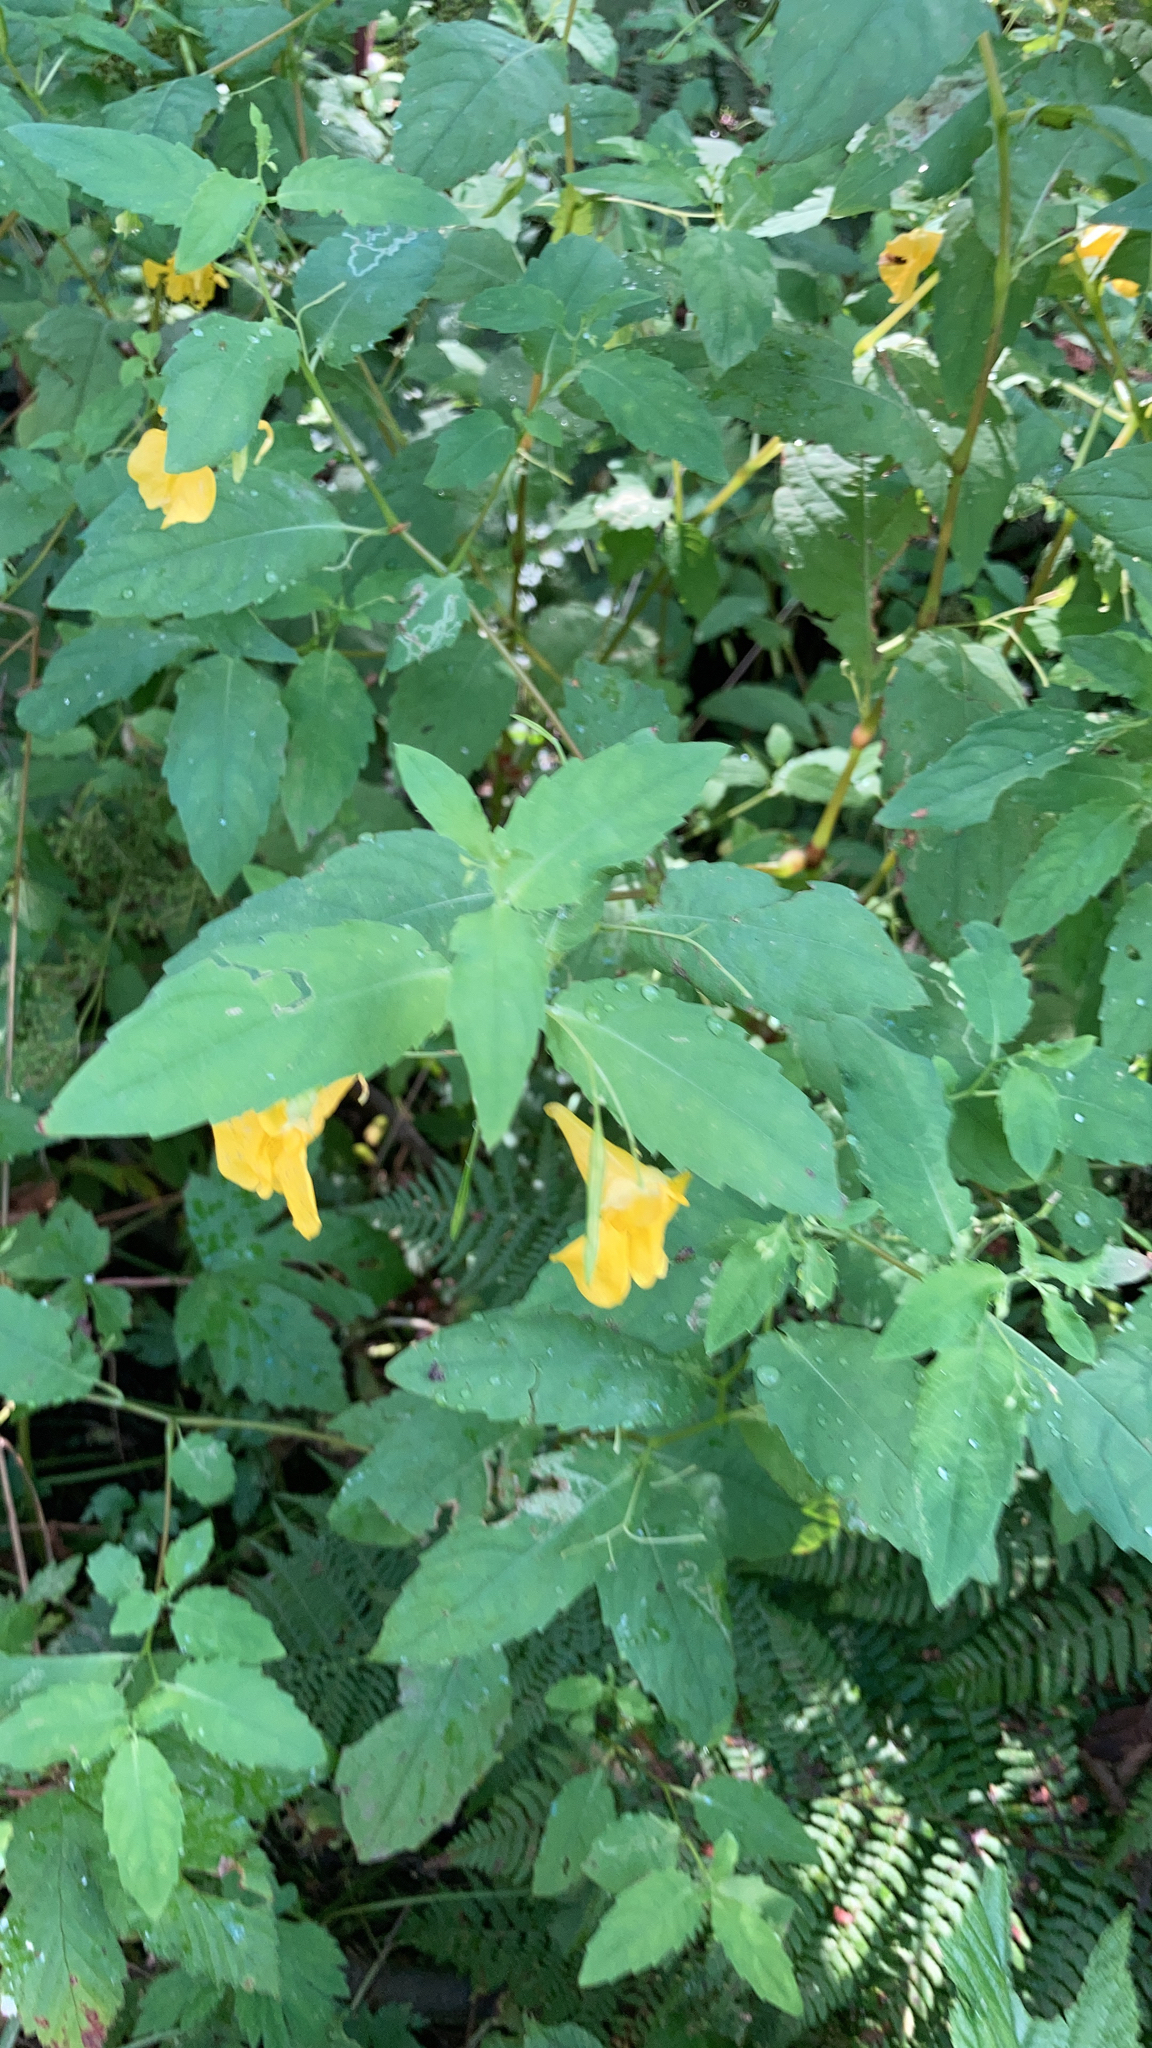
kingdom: Plantae
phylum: Tracheophyta
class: Magnoliopsida
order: Ericales
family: Balsaminaceae
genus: Impatiens
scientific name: Impatiens noli-tangere
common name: Touch-me-not balsam
